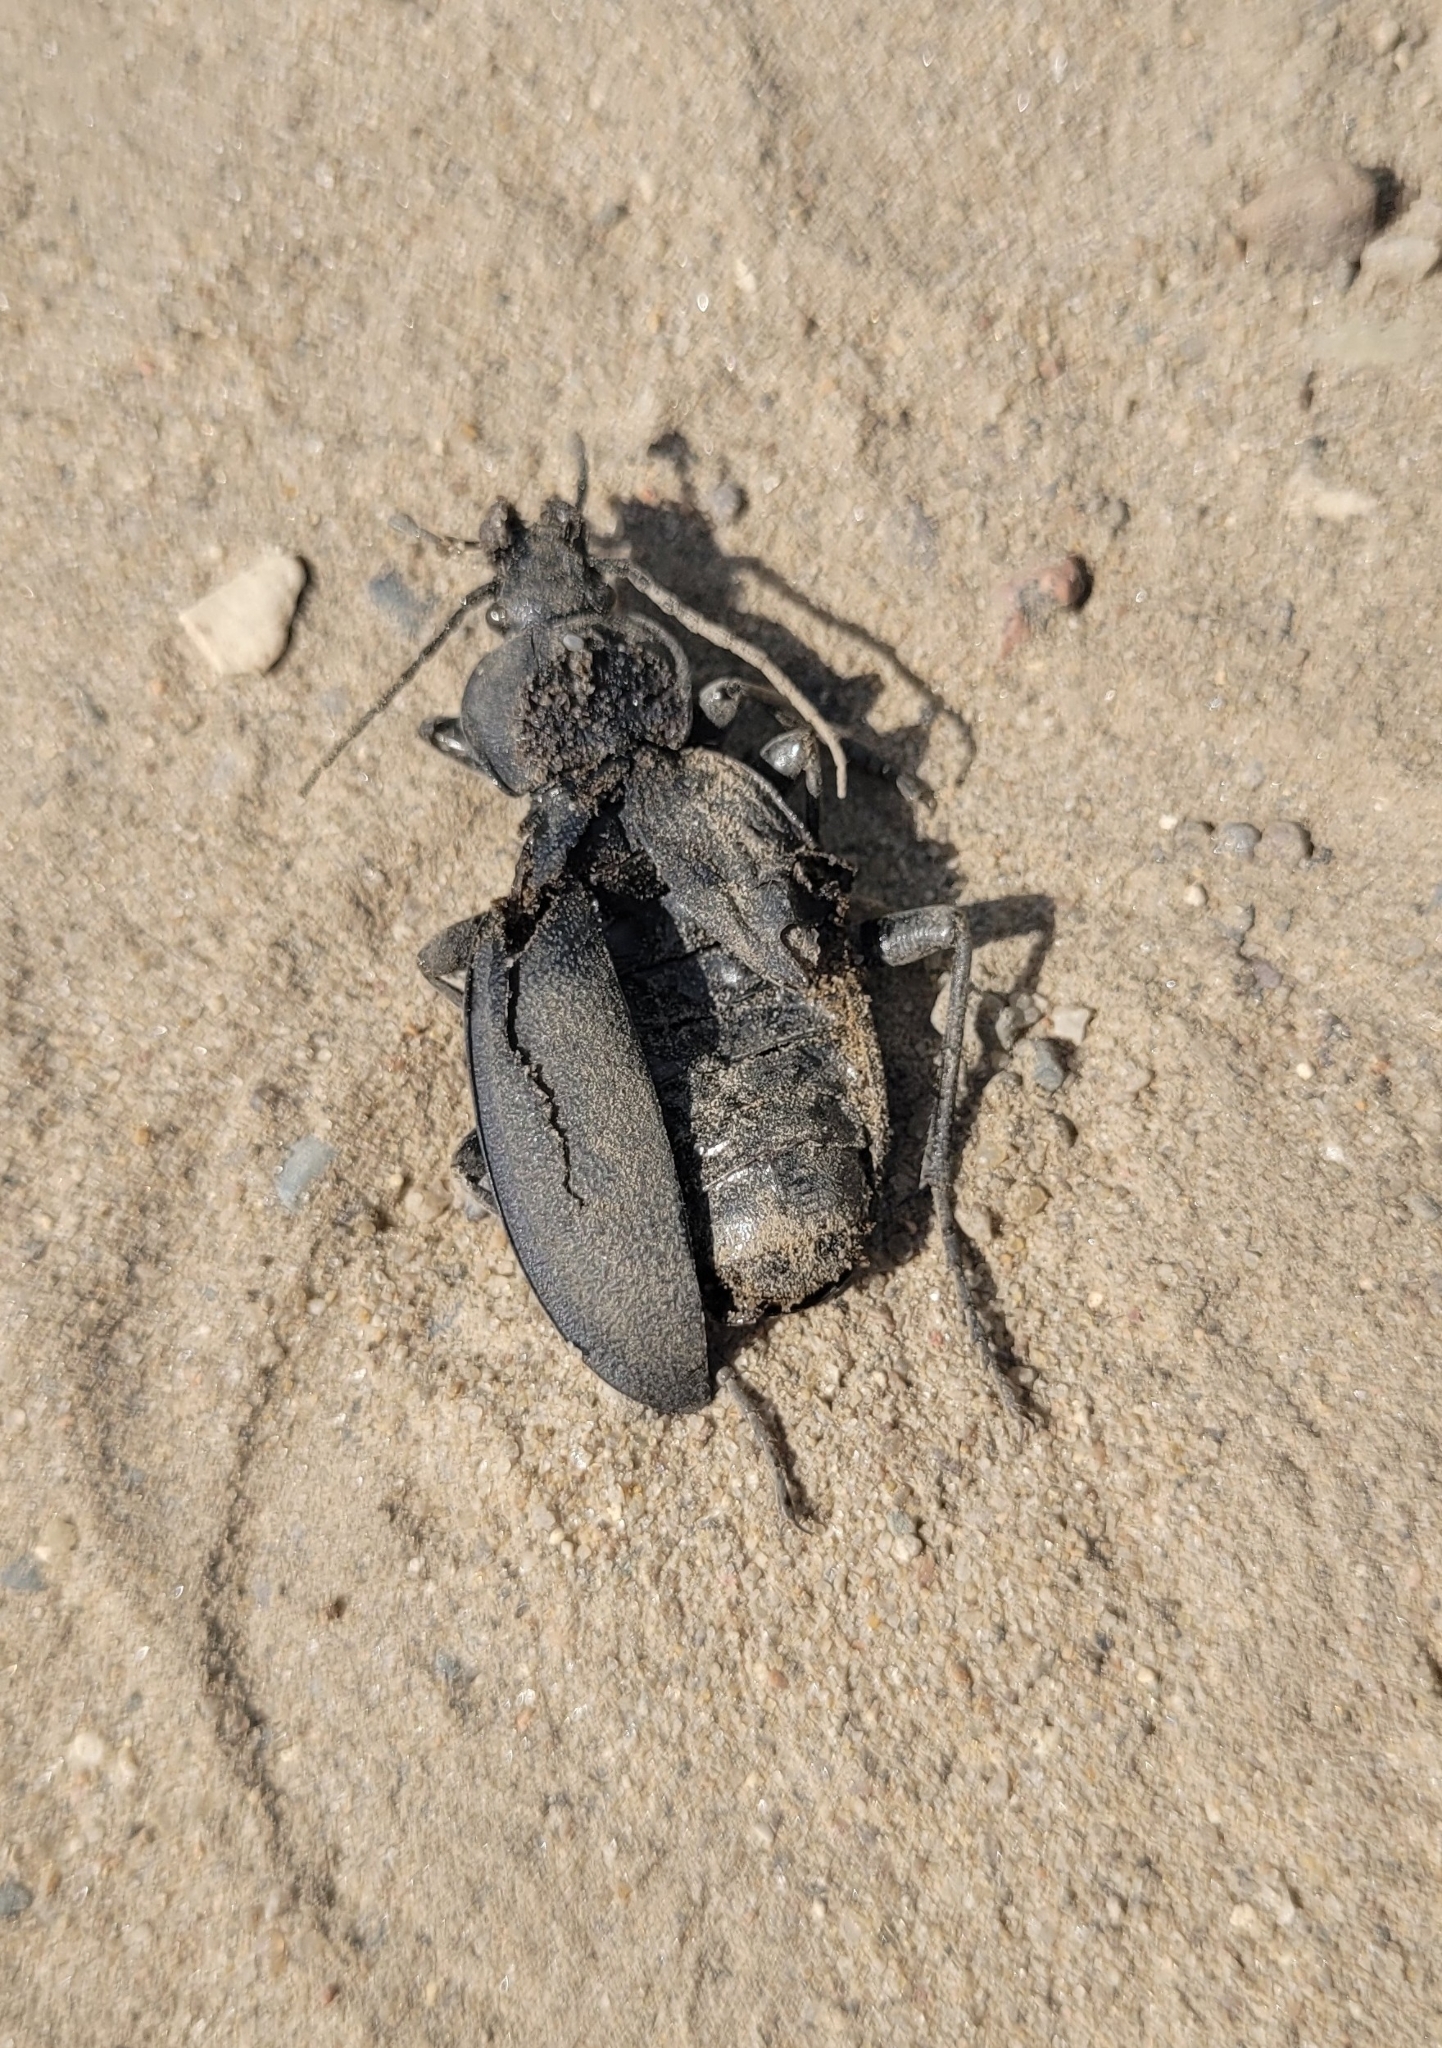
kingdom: Animalia
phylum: Arthropoda
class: Insecta
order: Coleoptera
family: Carabidae
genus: Carabus
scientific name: Carabus coriaceus
